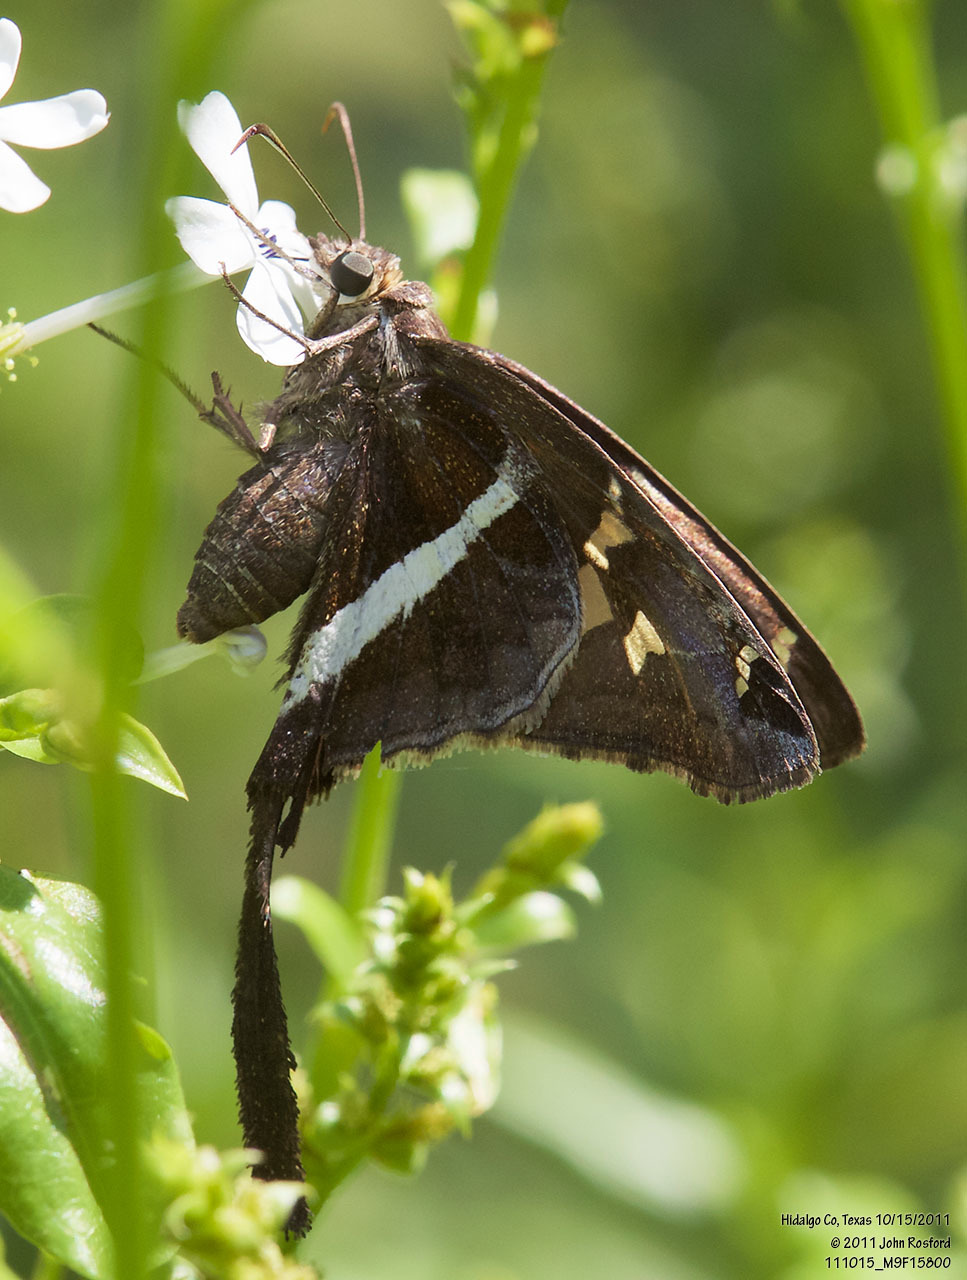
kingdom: Animalia
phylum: Arthropoda
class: Insecta
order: Lepidoptera
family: Hesperiidae
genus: Chioides
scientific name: Chioides catillus
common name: Silverbanded skipper
